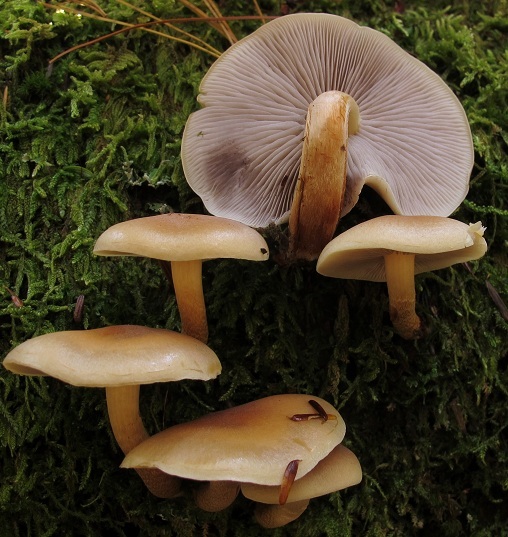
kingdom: Fungi
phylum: Basidiomycota
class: Agaricomycetes
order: Agaricales
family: Strophariaceae
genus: Hypholoma
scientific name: Hypholoma capnoides
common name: Conifer tuft
